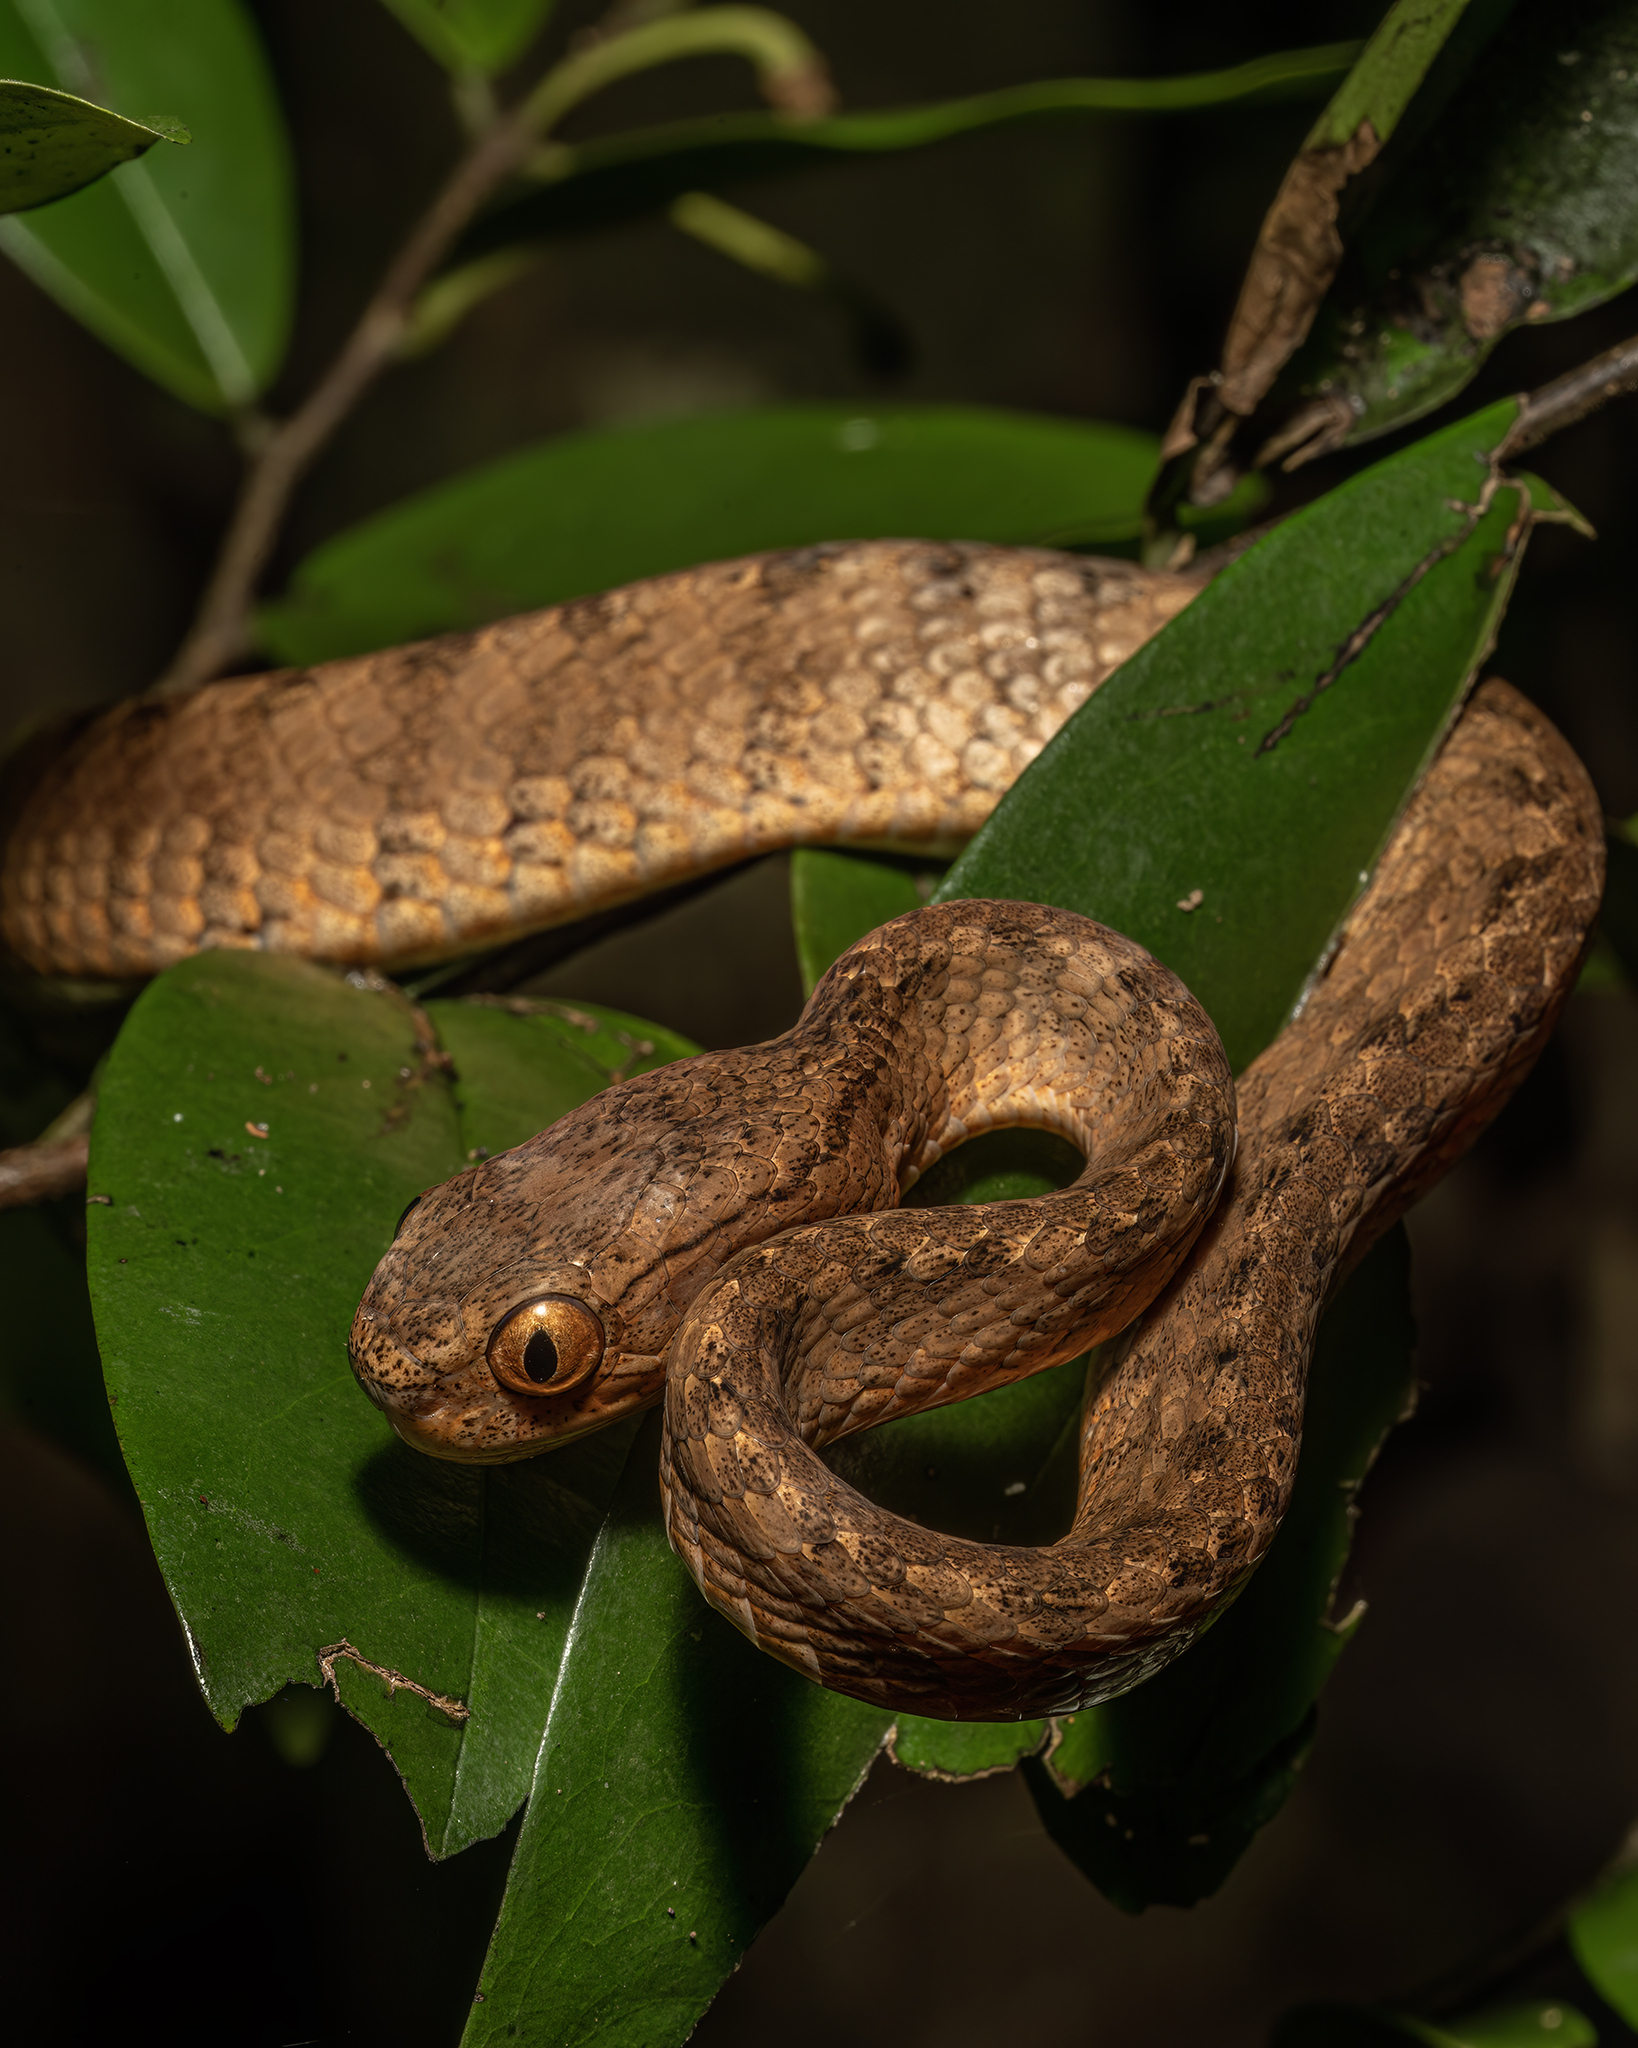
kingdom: Animalia
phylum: Chordata
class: Squamata
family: Pareidae
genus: Pareas
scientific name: Pareas carinatus
